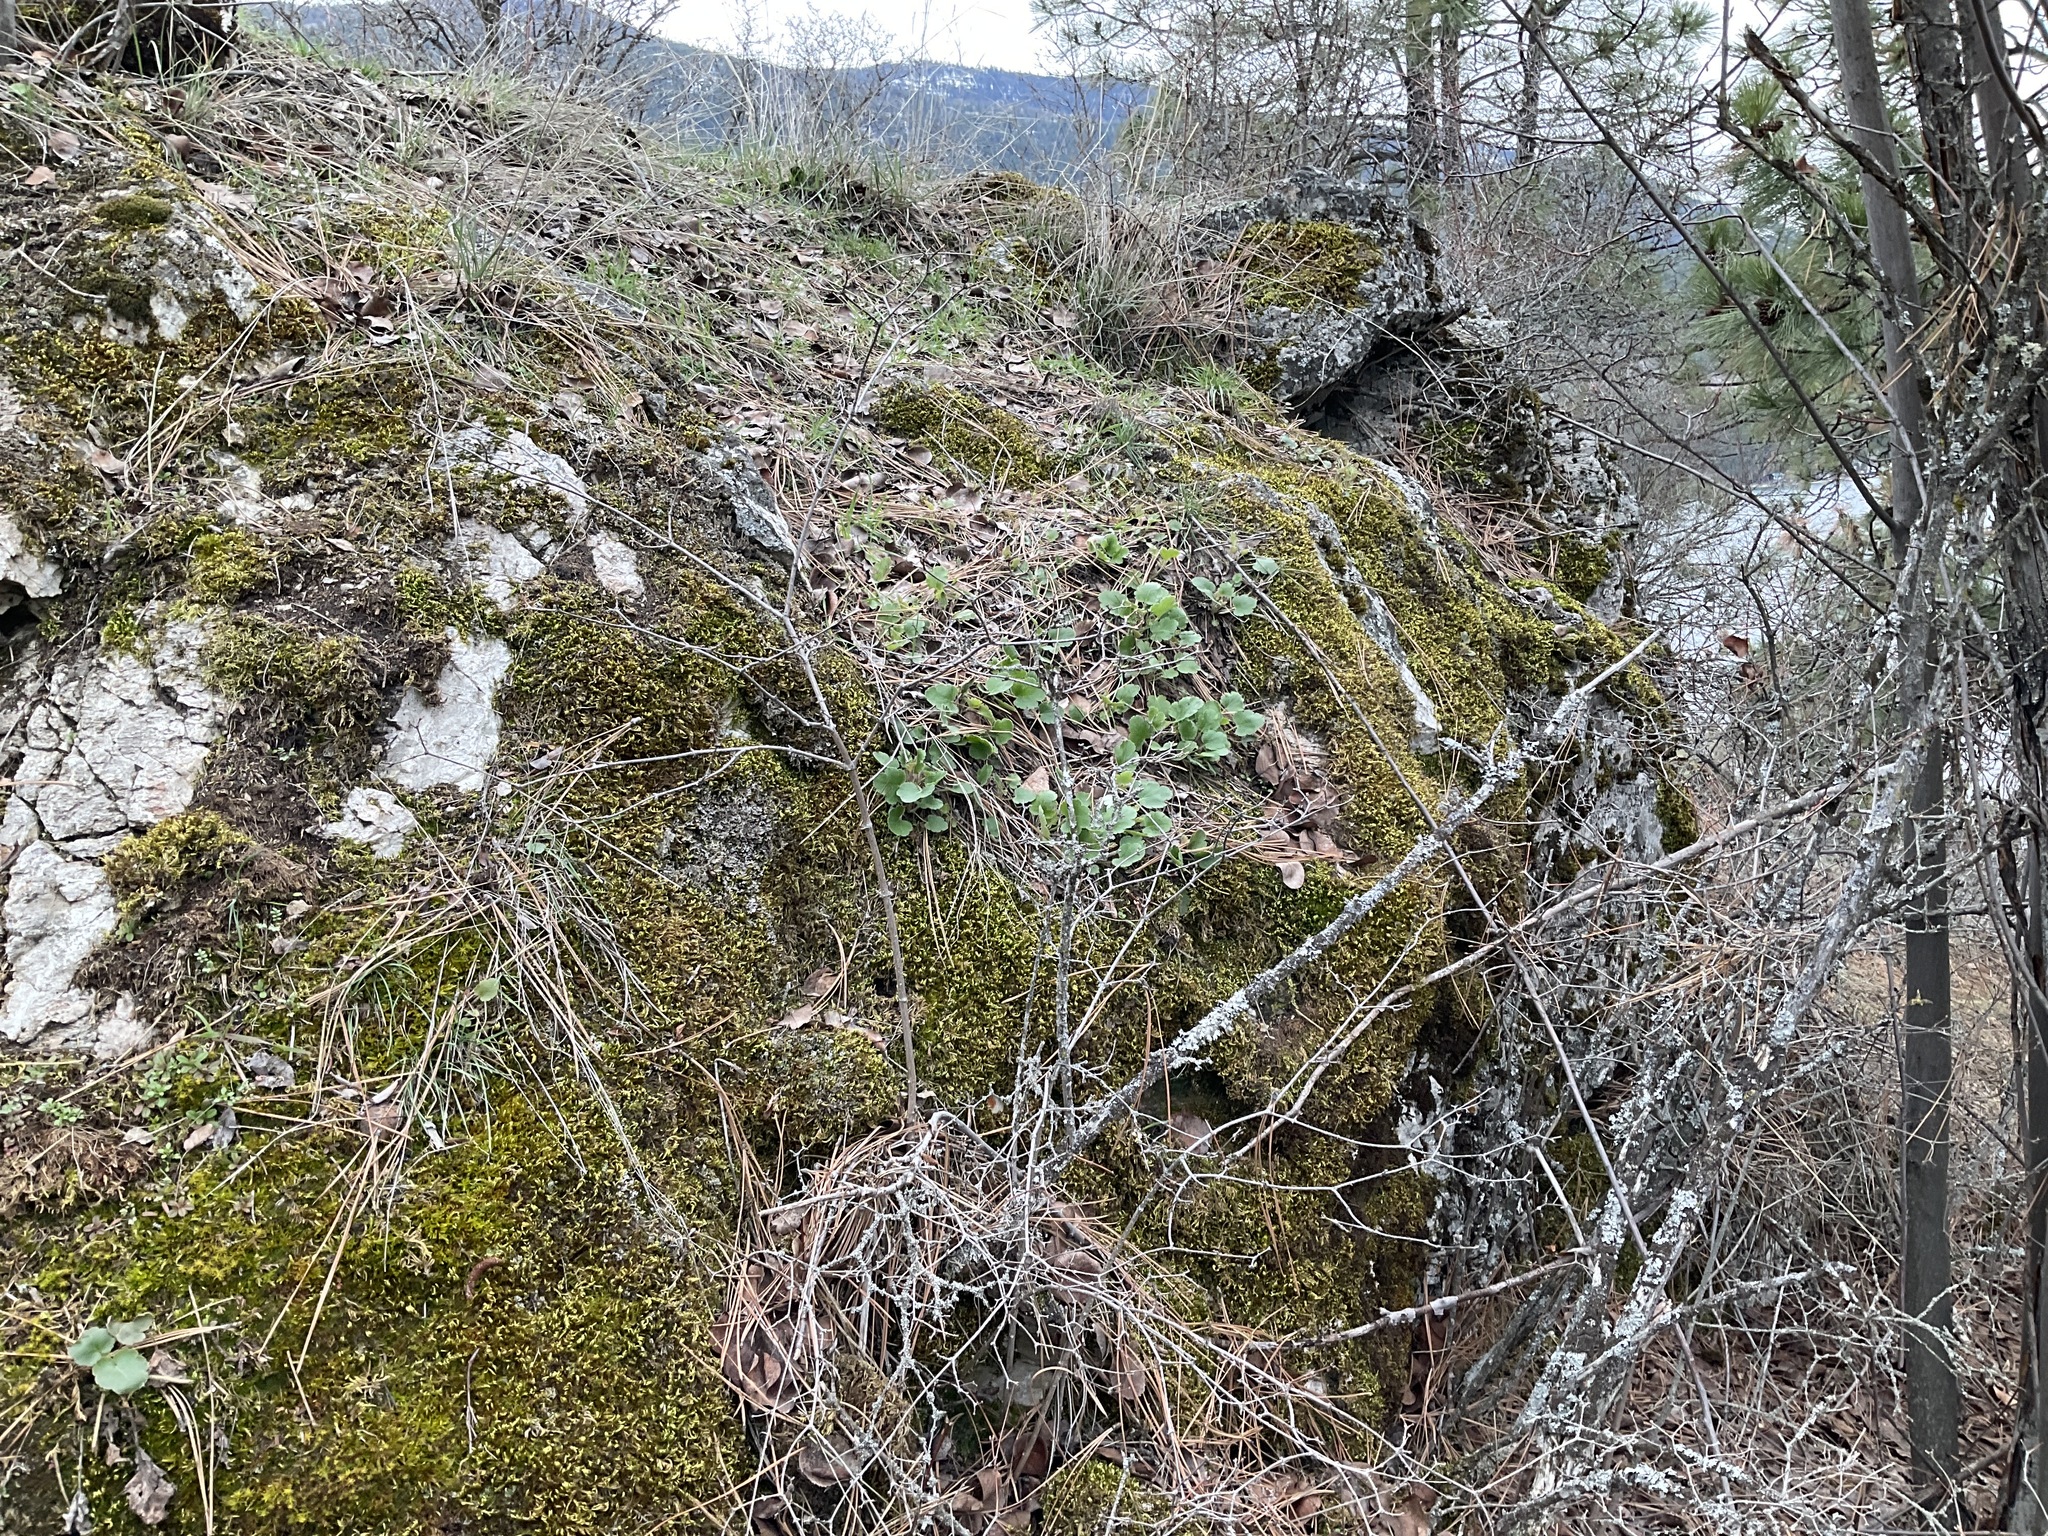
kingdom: Plantae
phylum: Tracheophyta
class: Magnoliopsida
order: Saxifragales
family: Saxifragaceae
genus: Heuchera
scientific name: Heuchera cylindrica
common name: Mat alumroot
